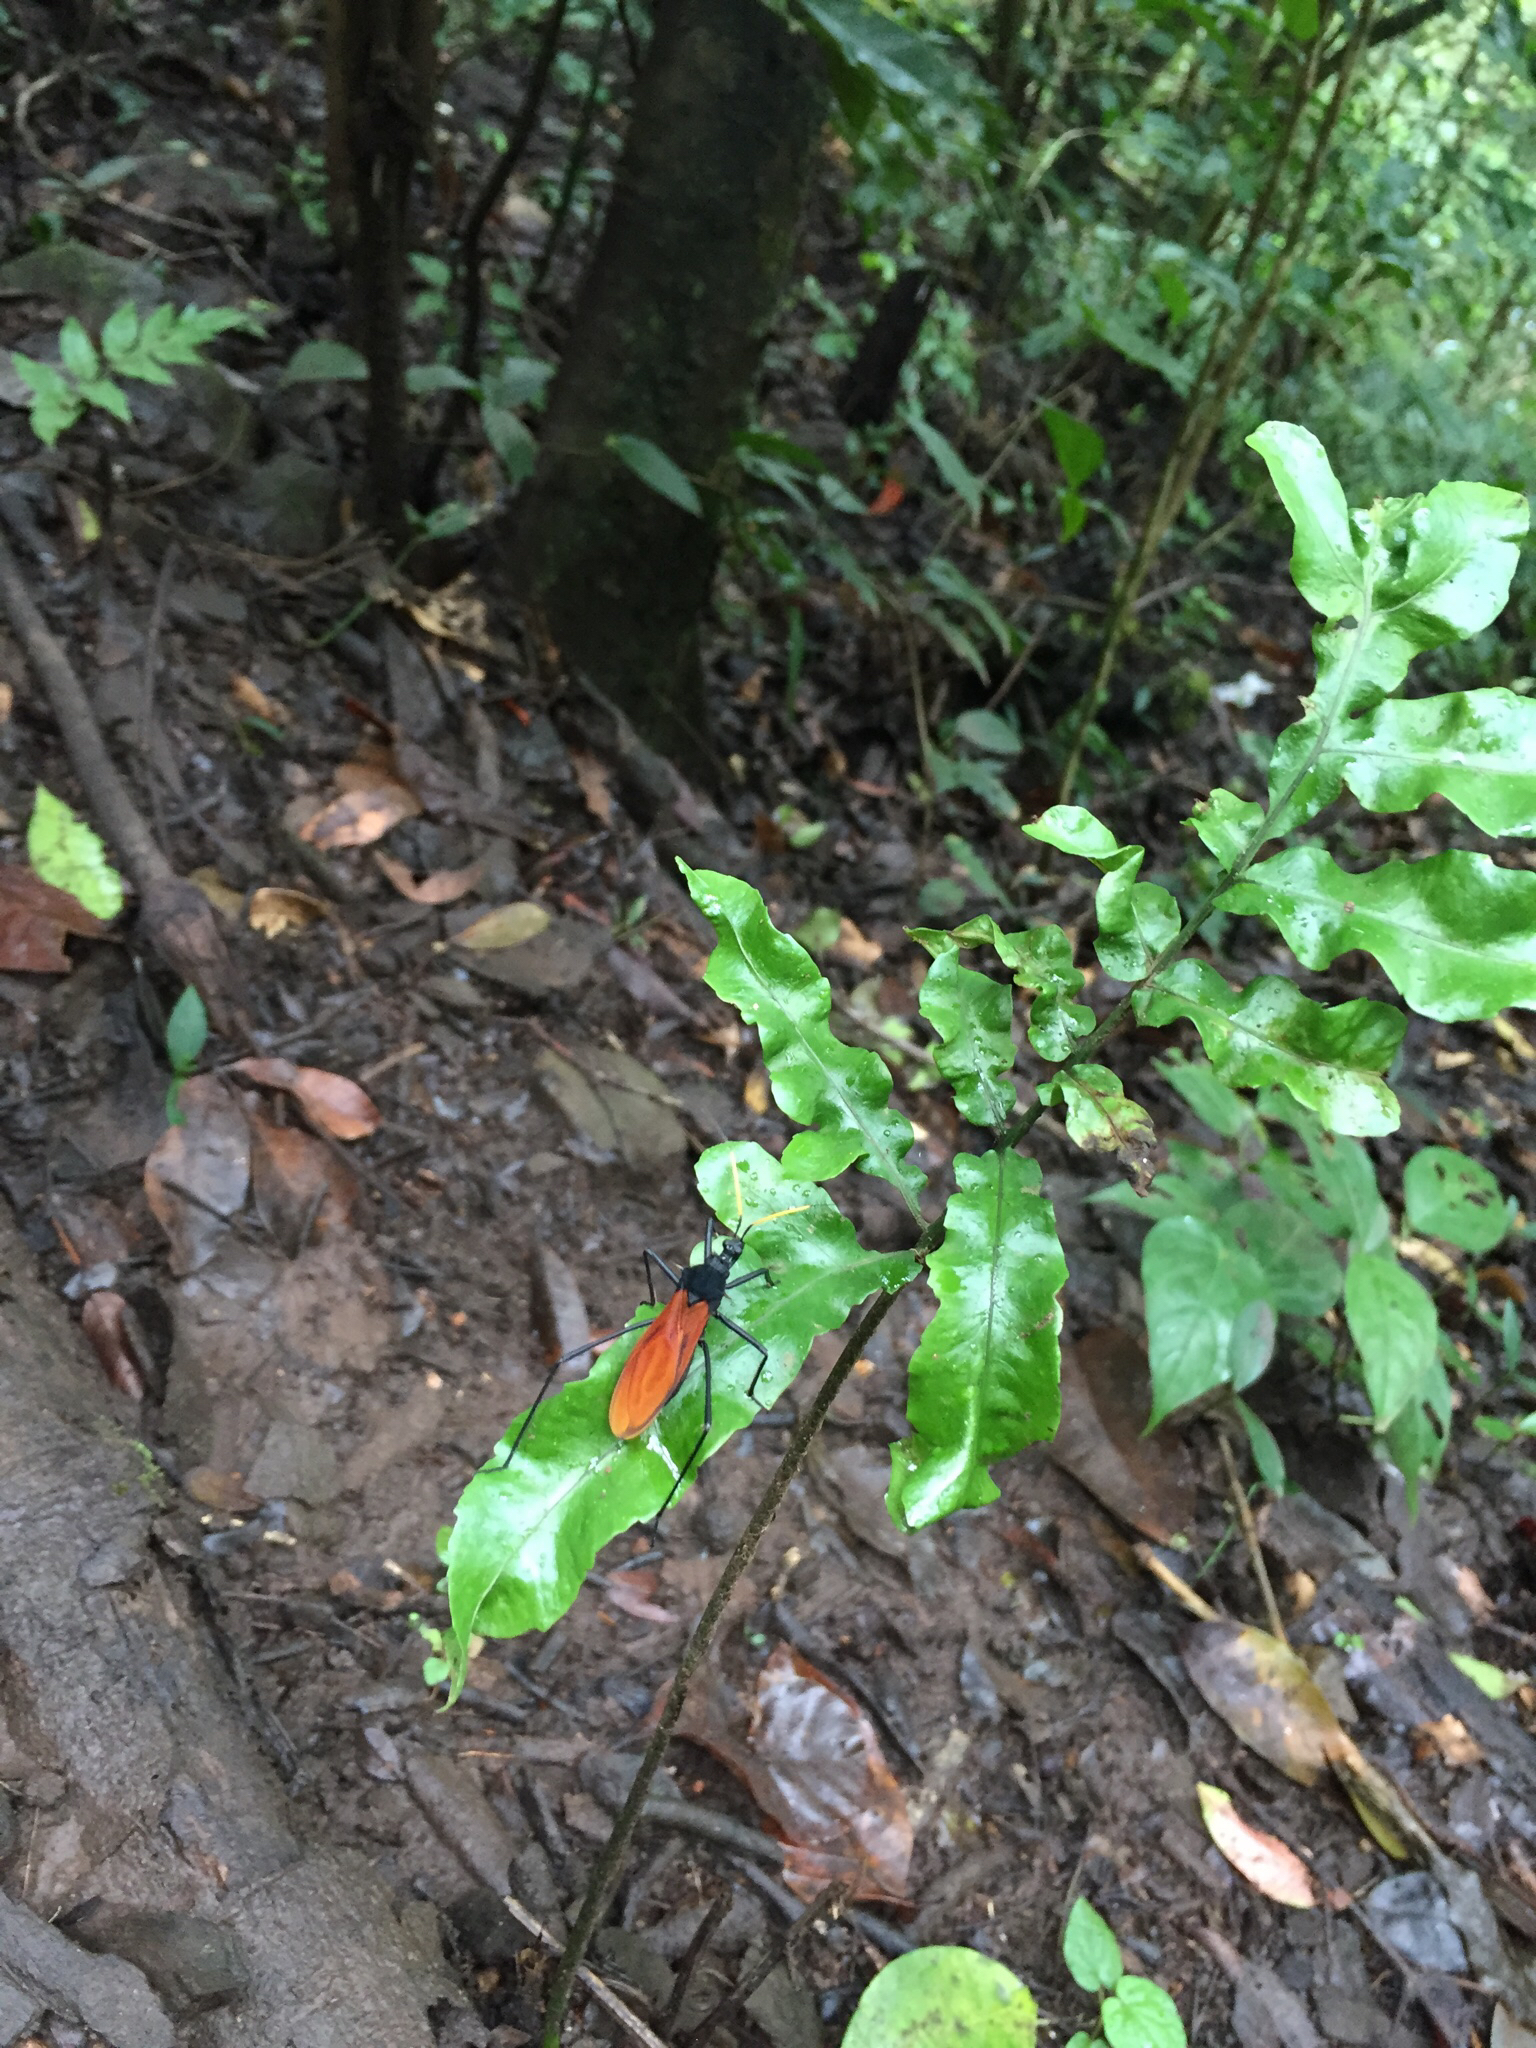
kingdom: Animalia
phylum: Arthropoda
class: Insecta
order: Hemiptera
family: Reduviidae
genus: Zelurus
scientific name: Zelurus spinidorsis
